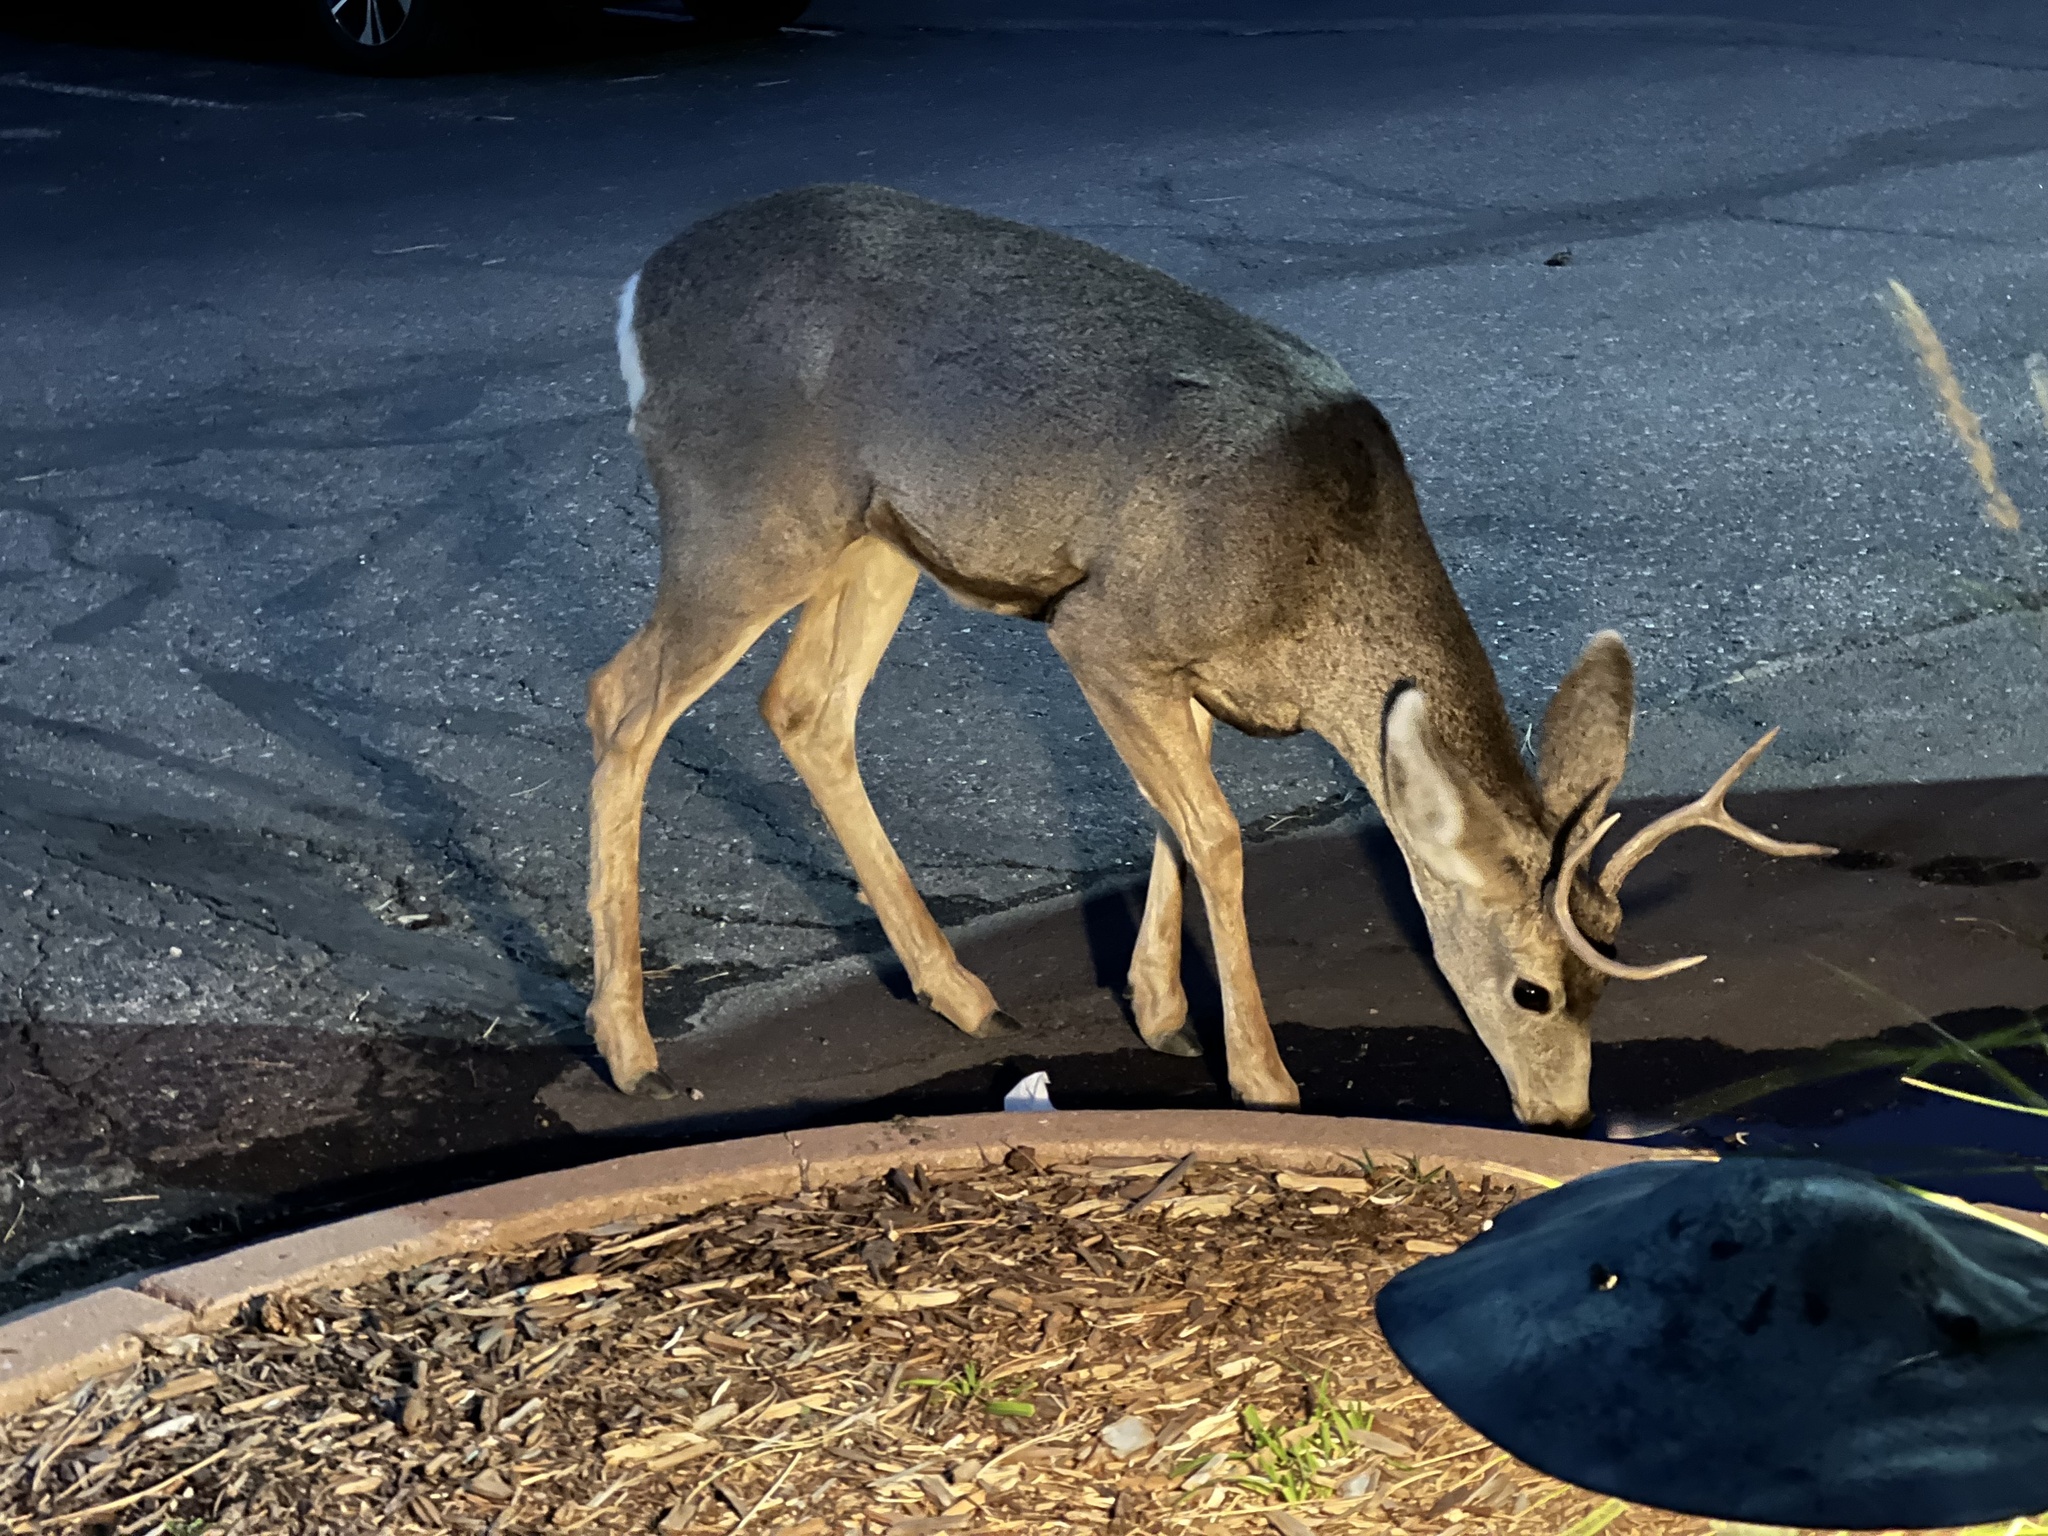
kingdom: Animalia
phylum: Chordata
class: Mammalia
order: Artiodactyla
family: Cervidae
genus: Odocoileus
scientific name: Odocoileus hemionus
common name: Mule deer
